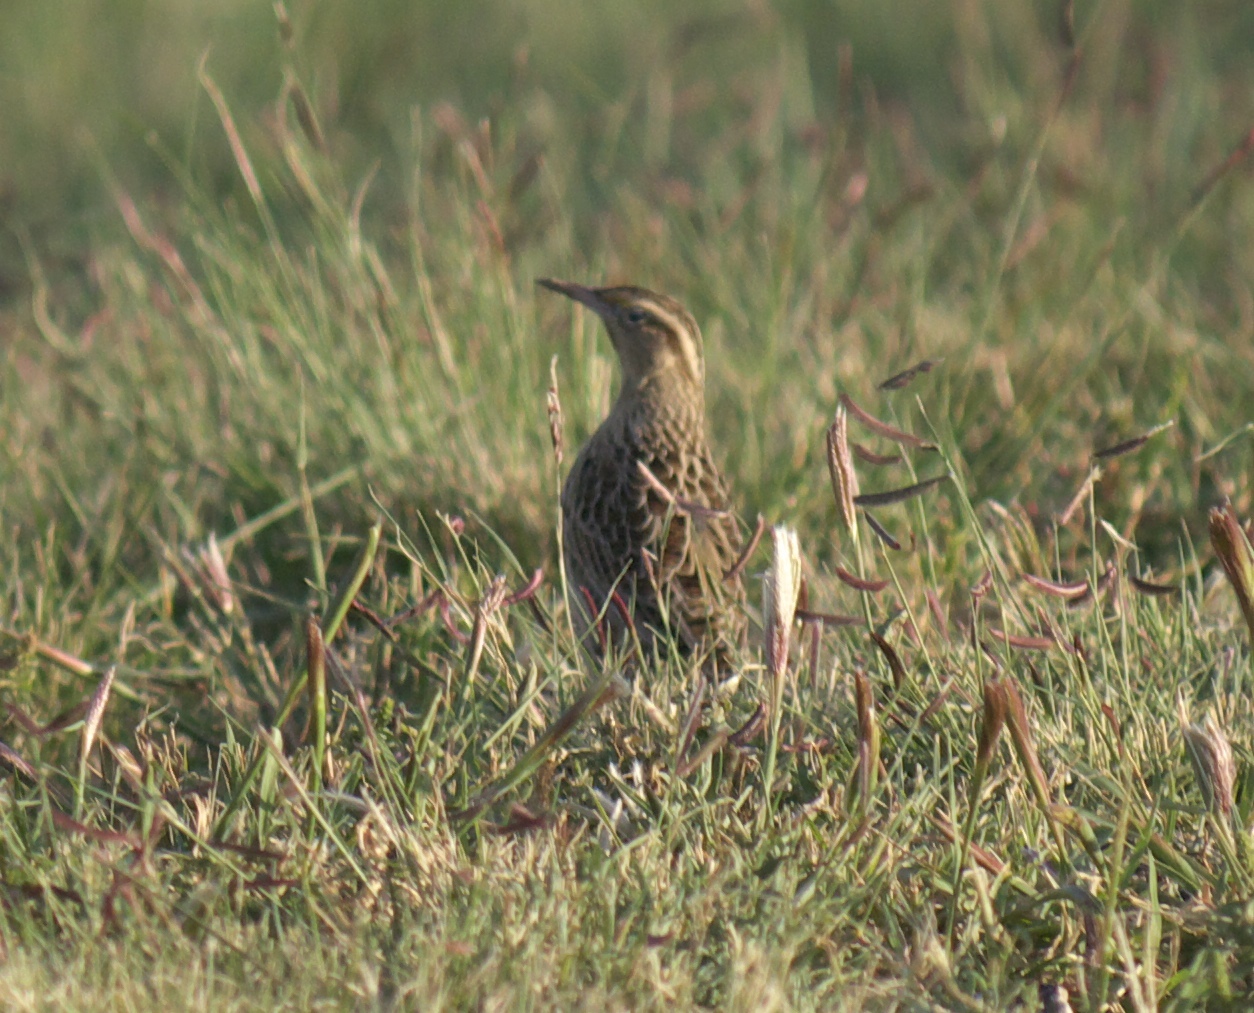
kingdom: Animalia
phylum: Chordata
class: Aves
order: Passeriformes
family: Icteridae
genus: Sturnella
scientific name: Sturnella
